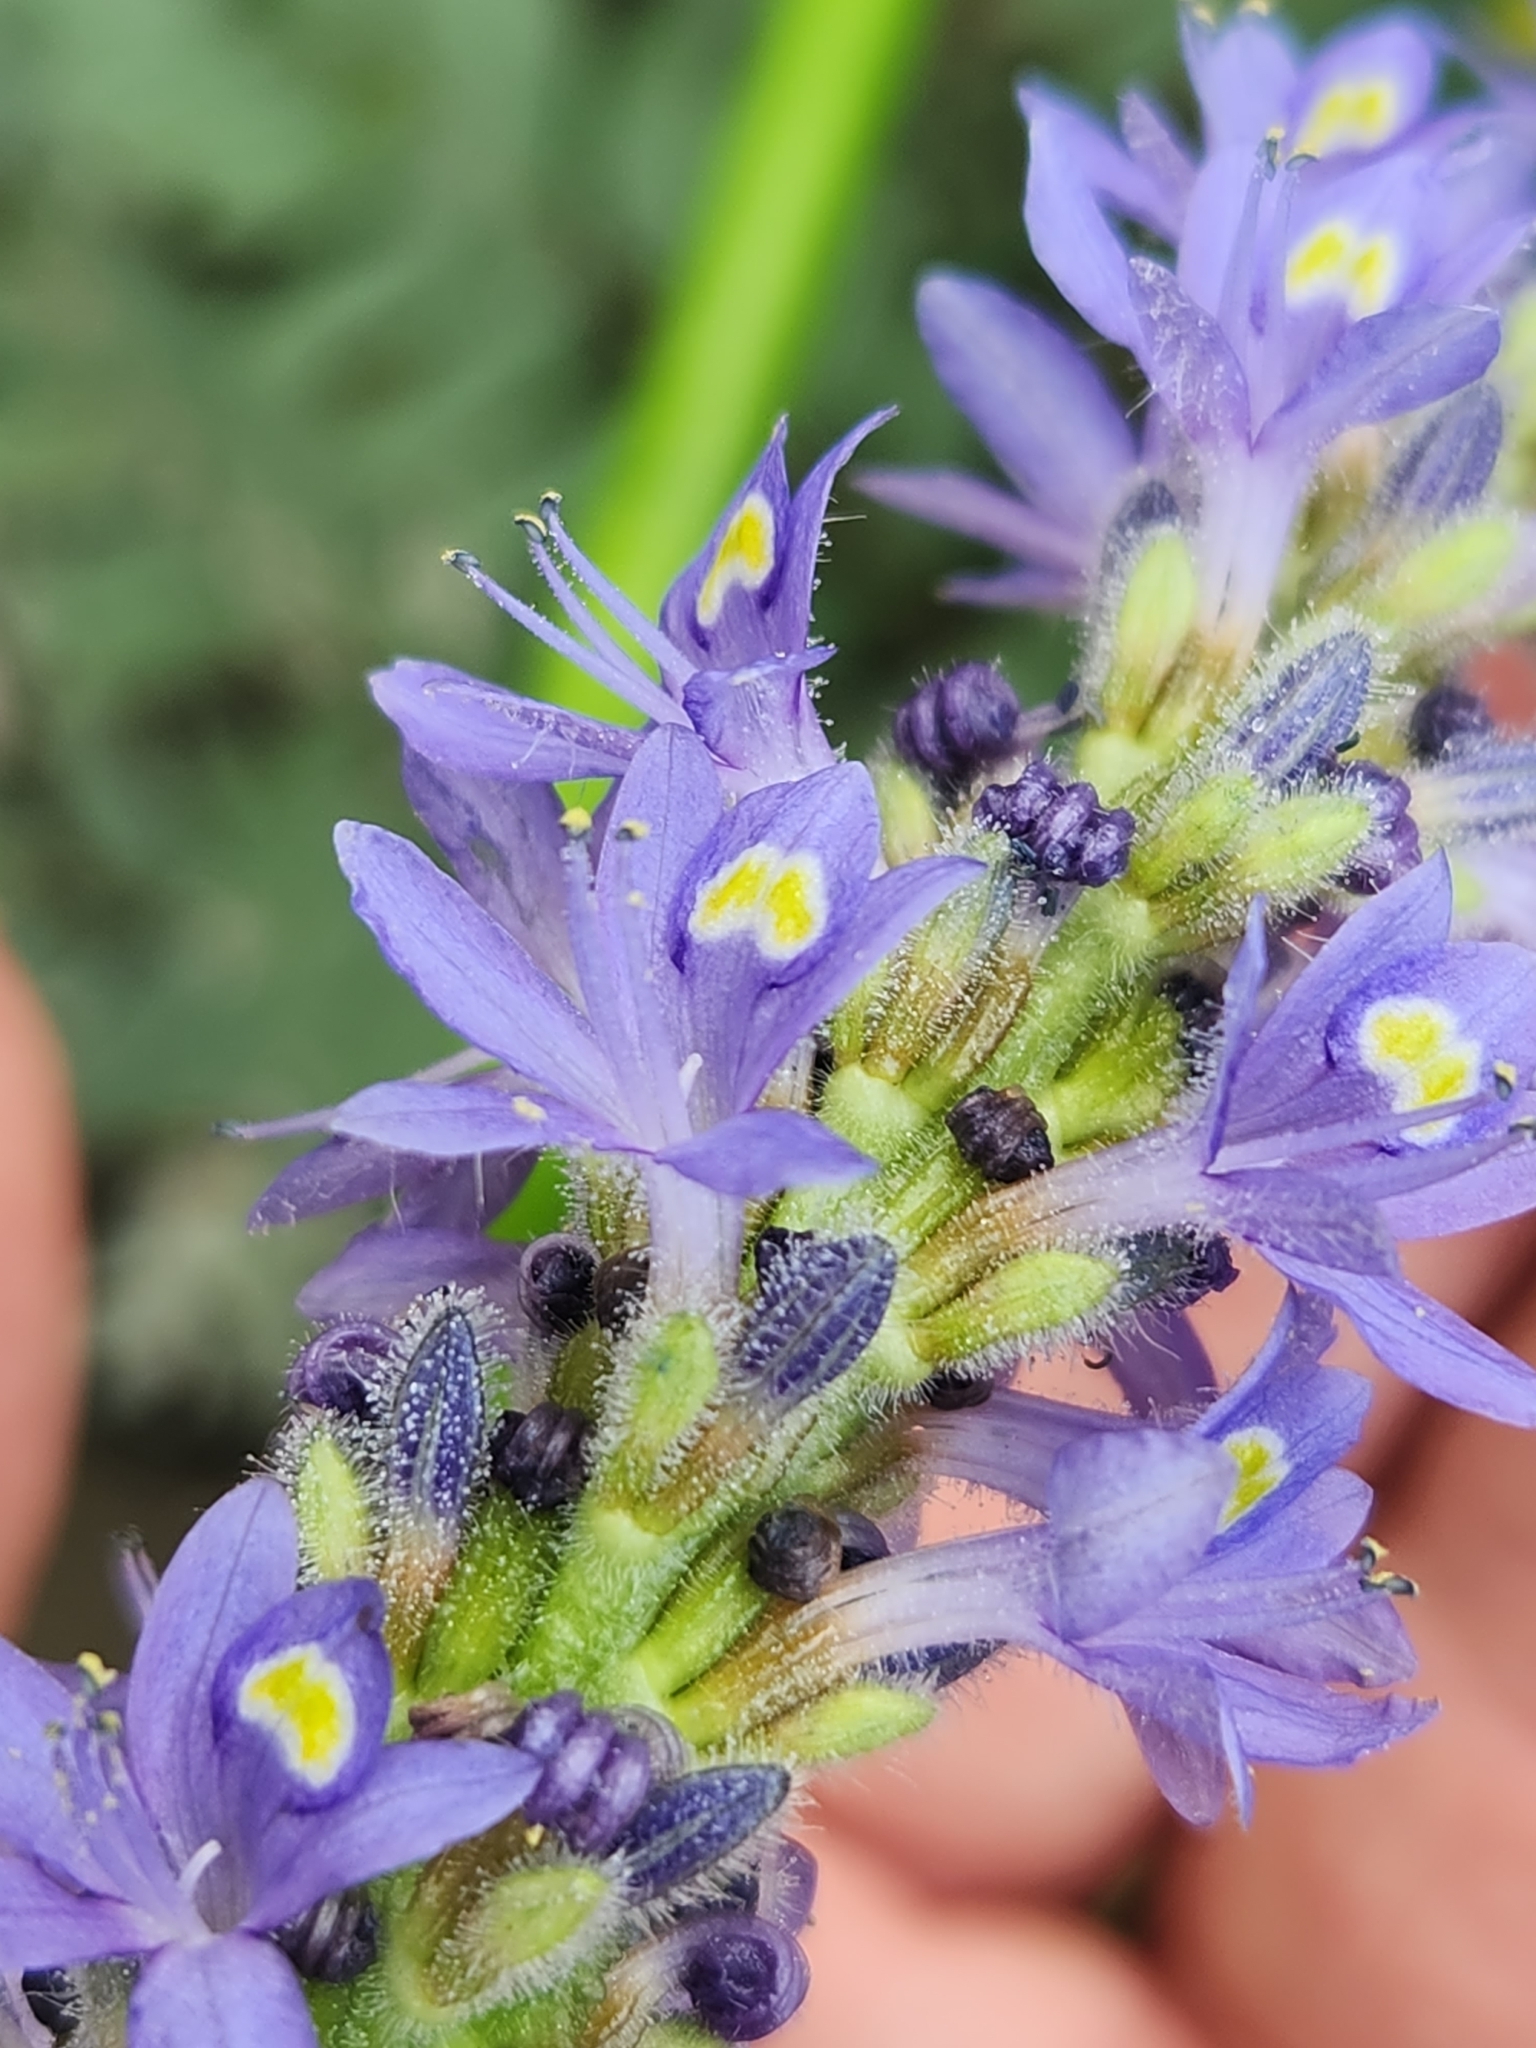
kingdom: Plantae
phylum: Tracheophyta
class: Liliopsida
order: Commelinales
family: Pontederiaceae
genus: Pontederia
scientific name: Pontederia cordata
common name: Pickerelweed
